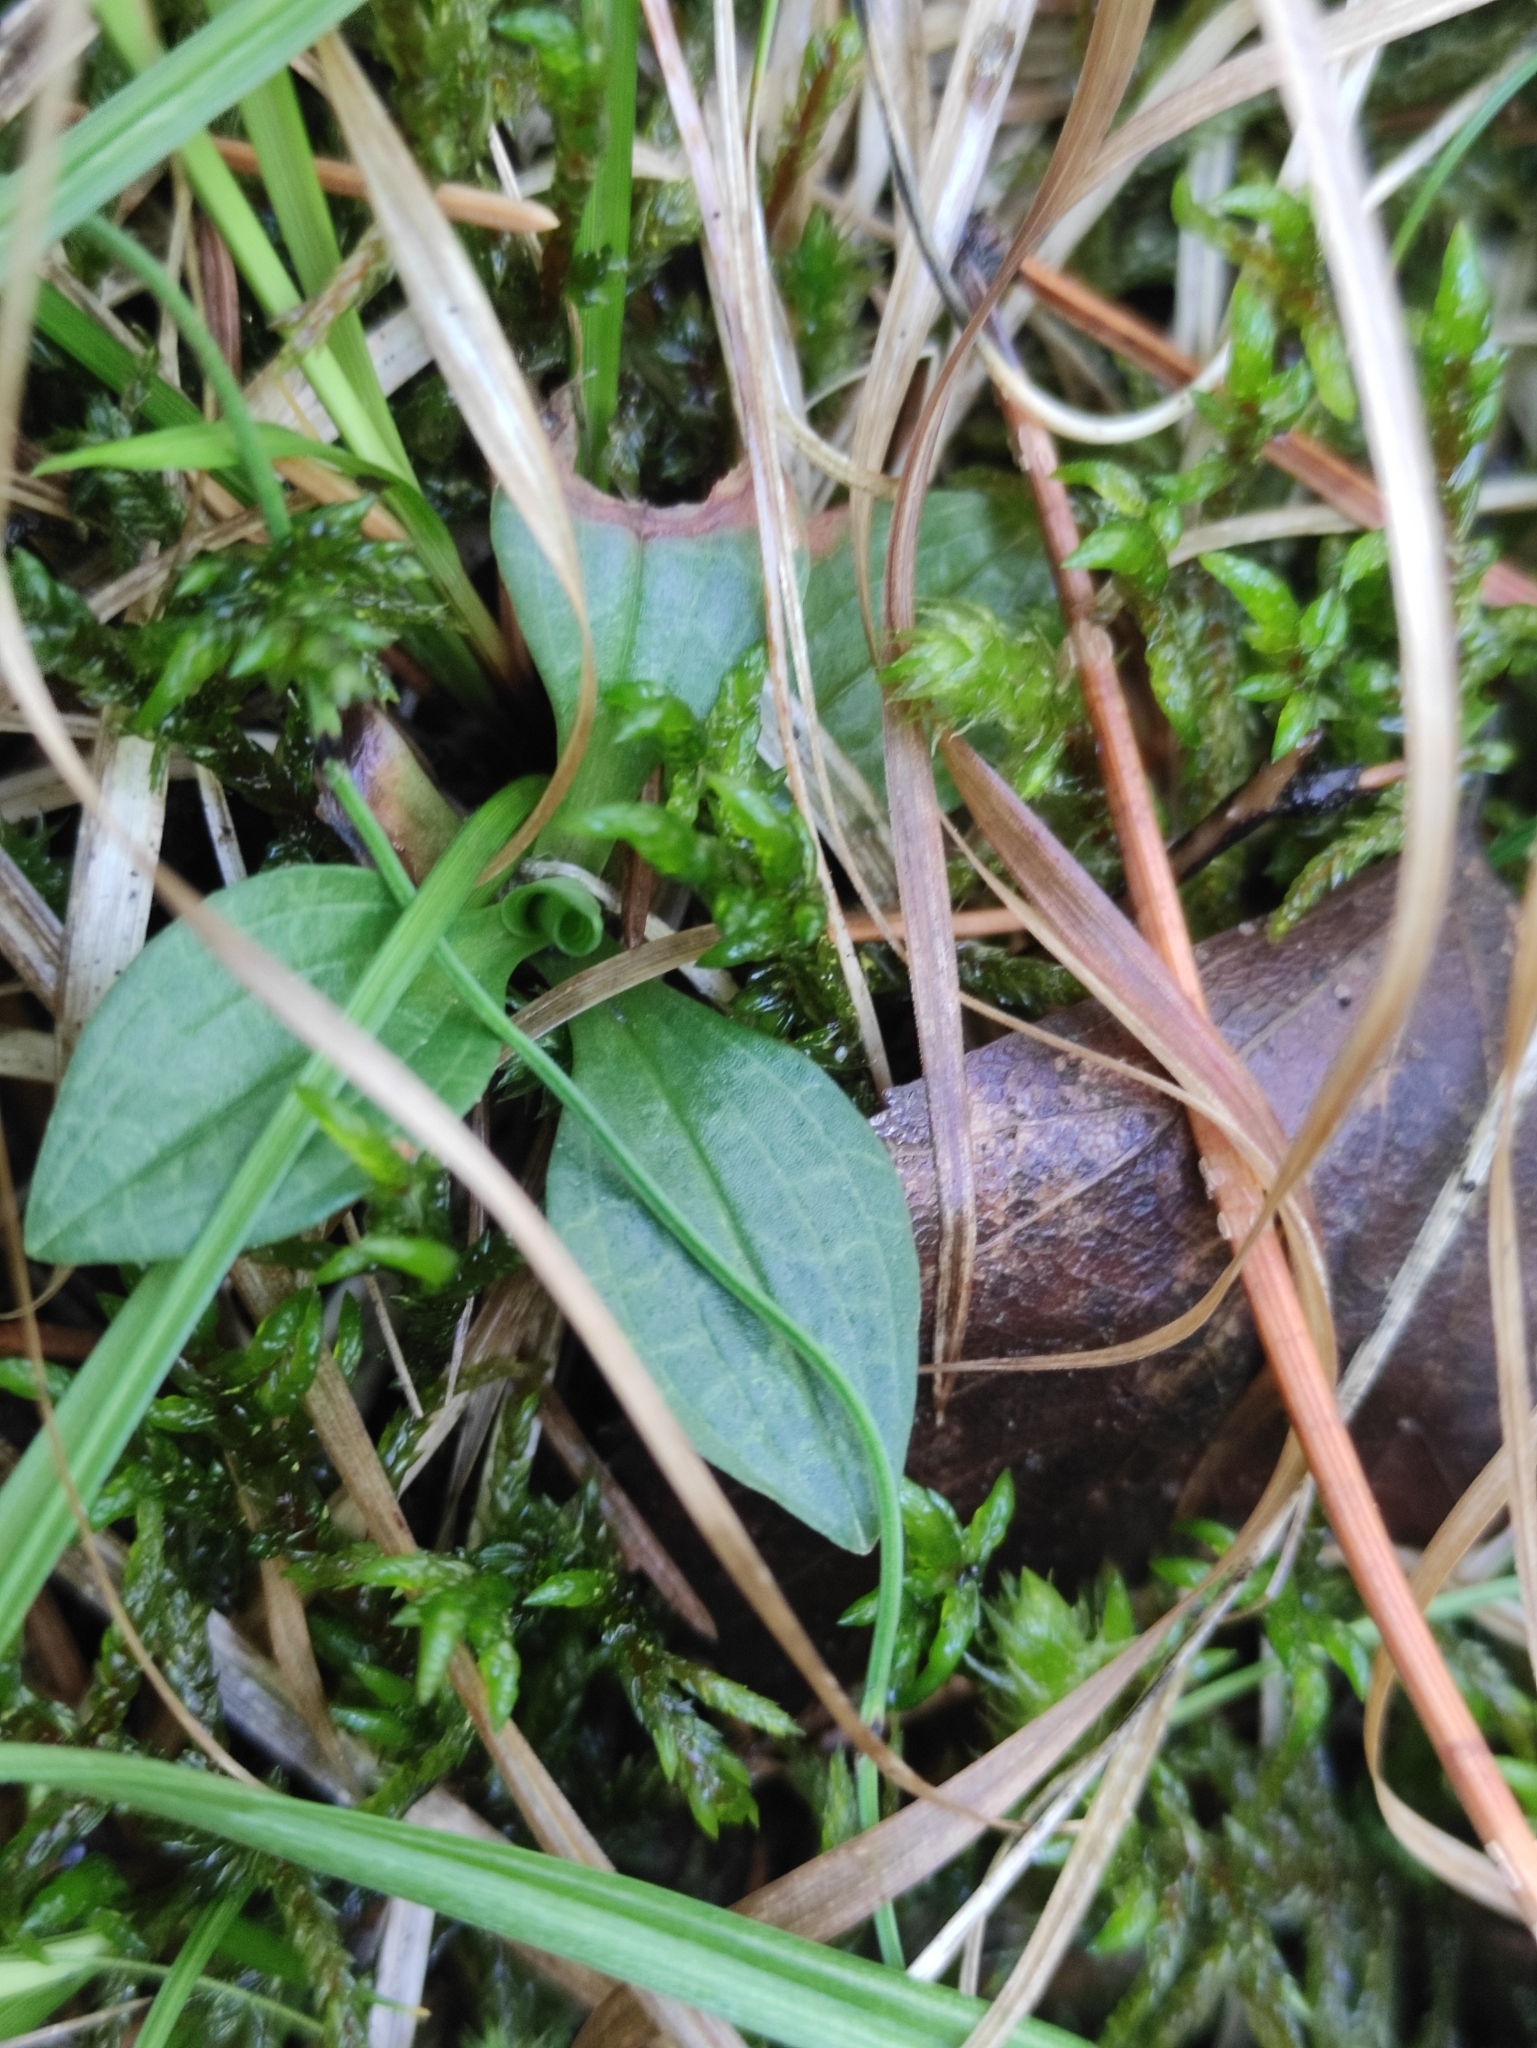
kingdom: Plantae
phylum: Tracheophyta
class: Liliopsida
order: Asparagales
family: Orchidaceae
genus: Goodyera
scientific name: Goodyera repens
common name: Creeping lady's-tresses
